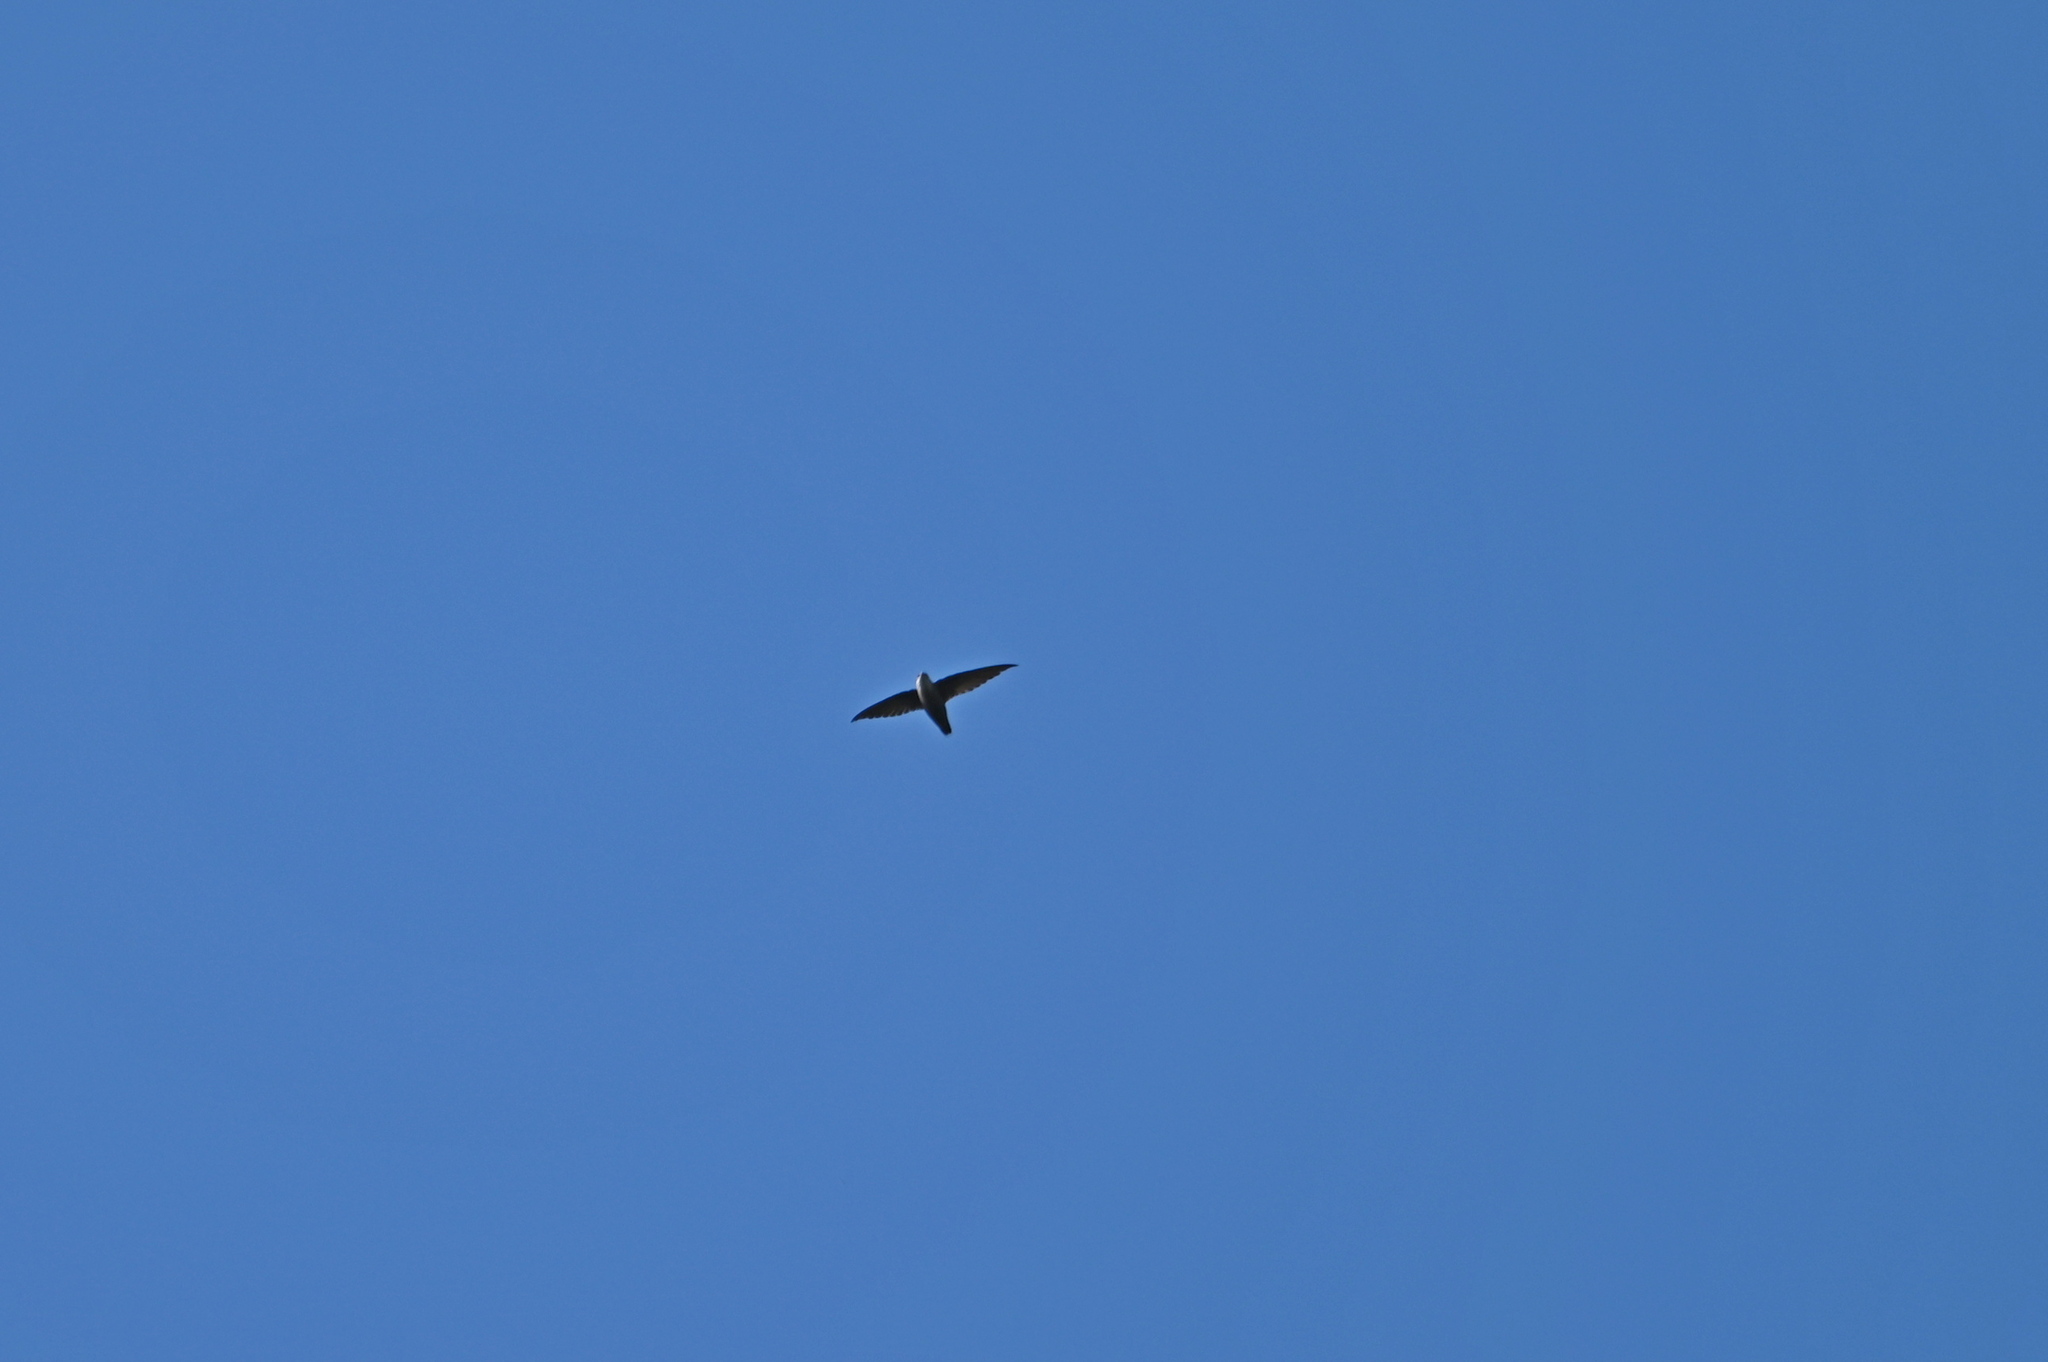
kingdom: Animalia
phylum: Chordata
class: Aves
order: Apodiformes
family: Apodidae
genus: Chaetura
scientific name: Chaetura pelagica
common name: Chimney swift
